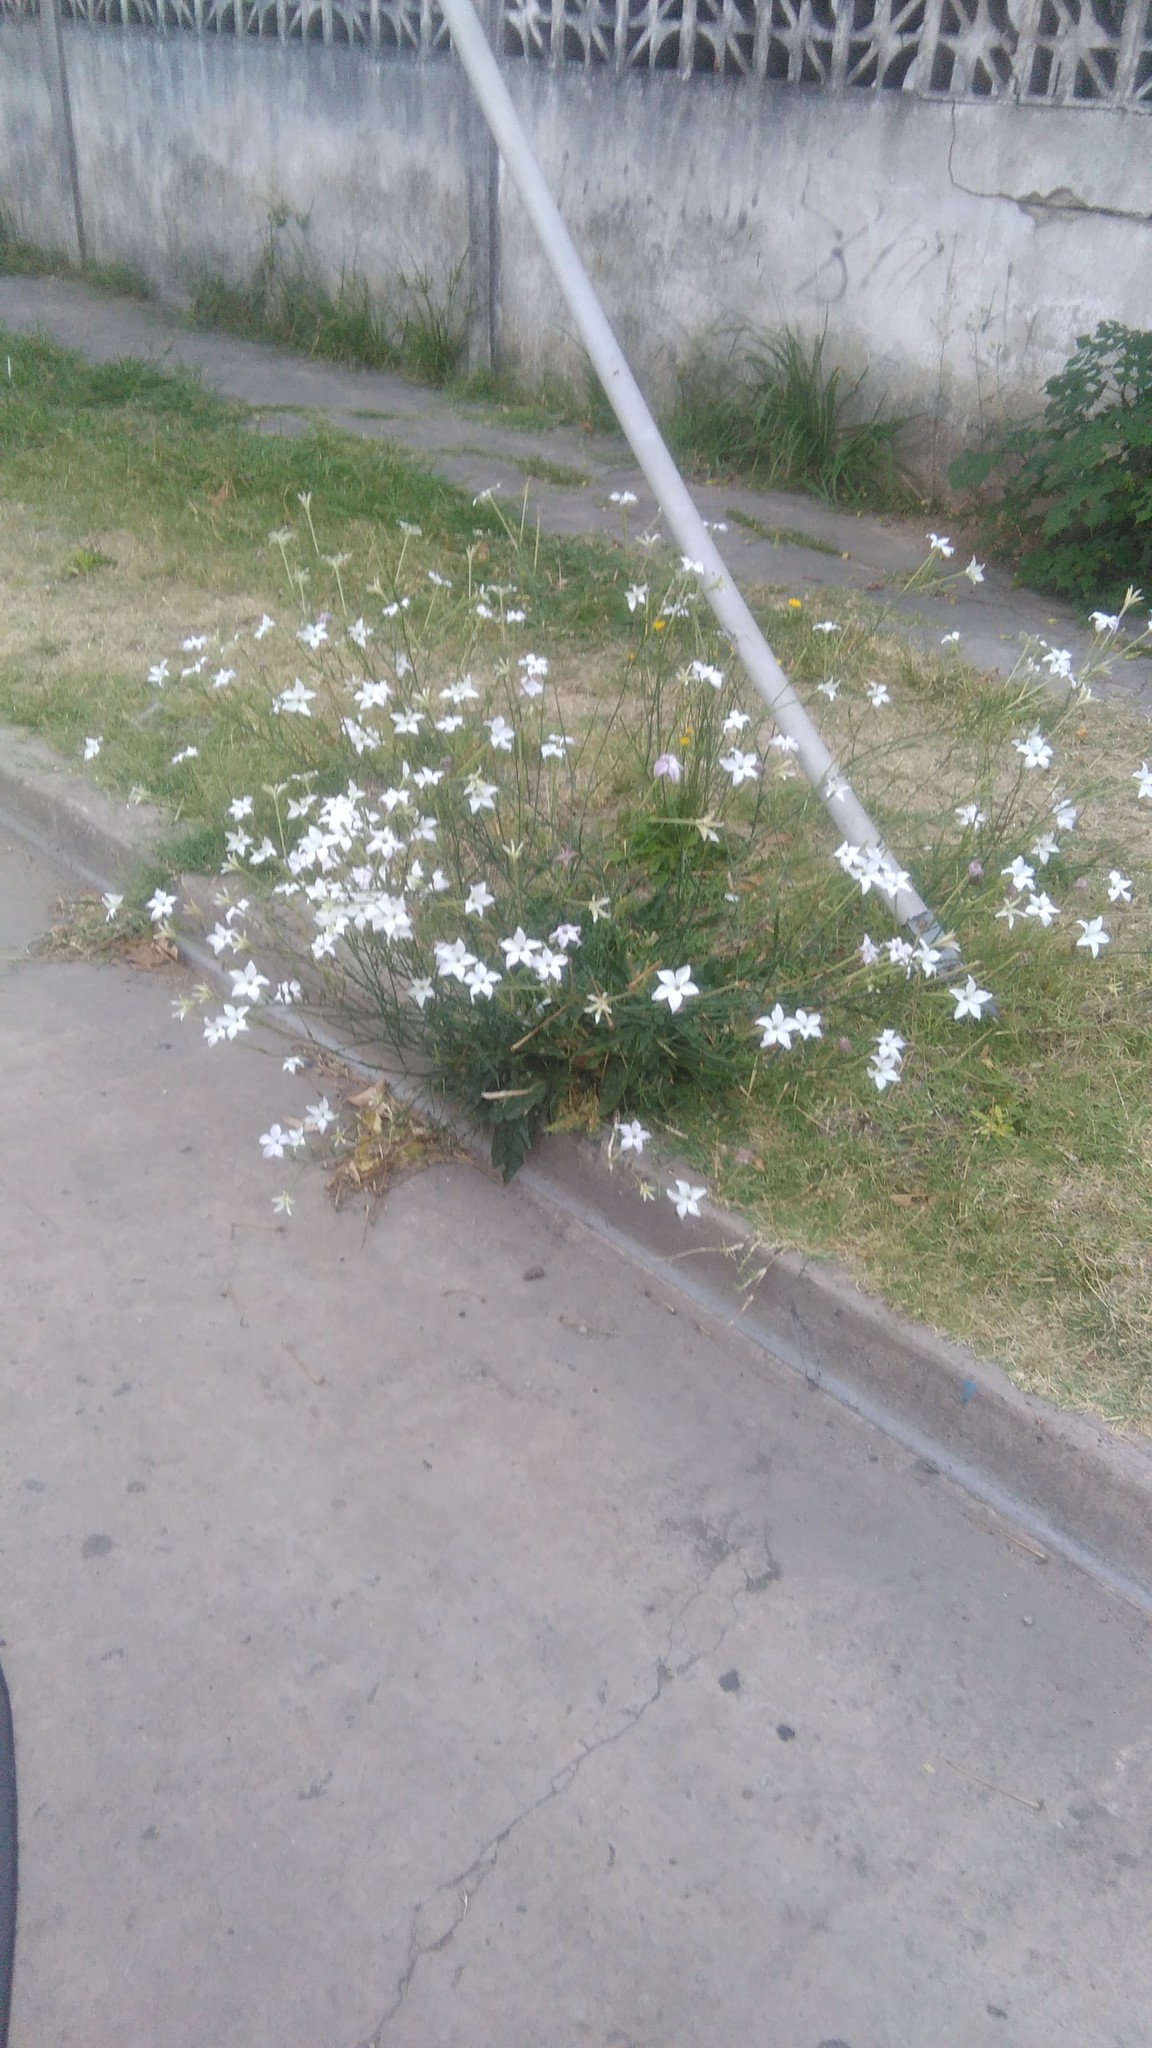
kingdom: Plantae
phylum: Tracheophyta
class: Magnoliopsida
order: Solanales
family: Solanaceae
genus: Nicotiana
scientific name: Nicotiana longiflora
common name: Long-flowered tobacco
